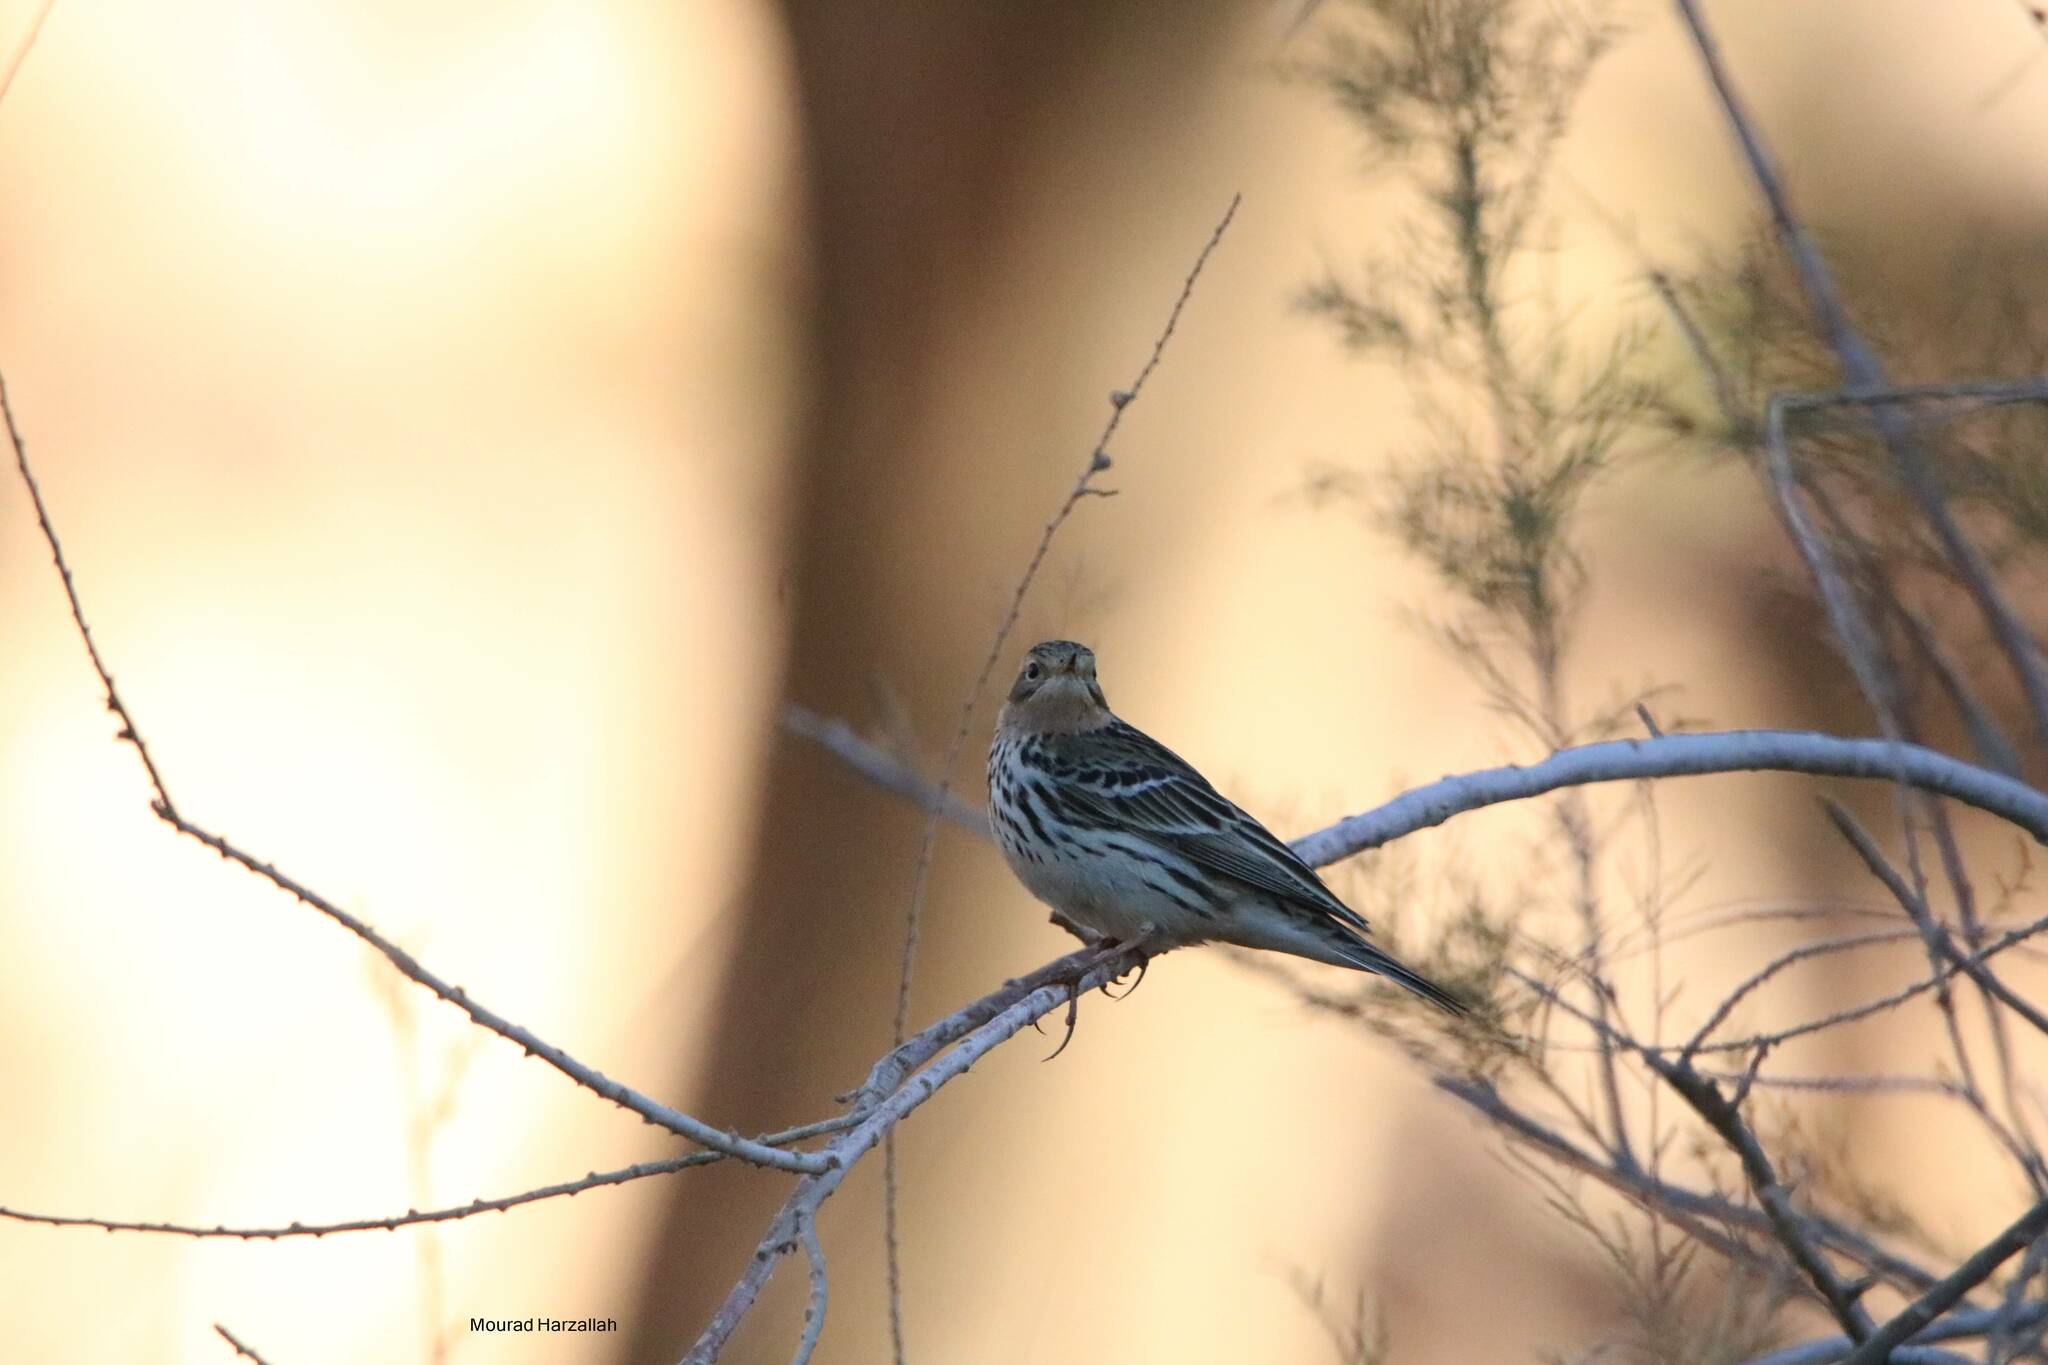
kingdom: Animalia
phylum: Chordata
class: Aves
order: Passeriformes
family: Motacillidae
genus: Anthus
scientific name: Anthus cervinus
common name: Red-throated pipit
